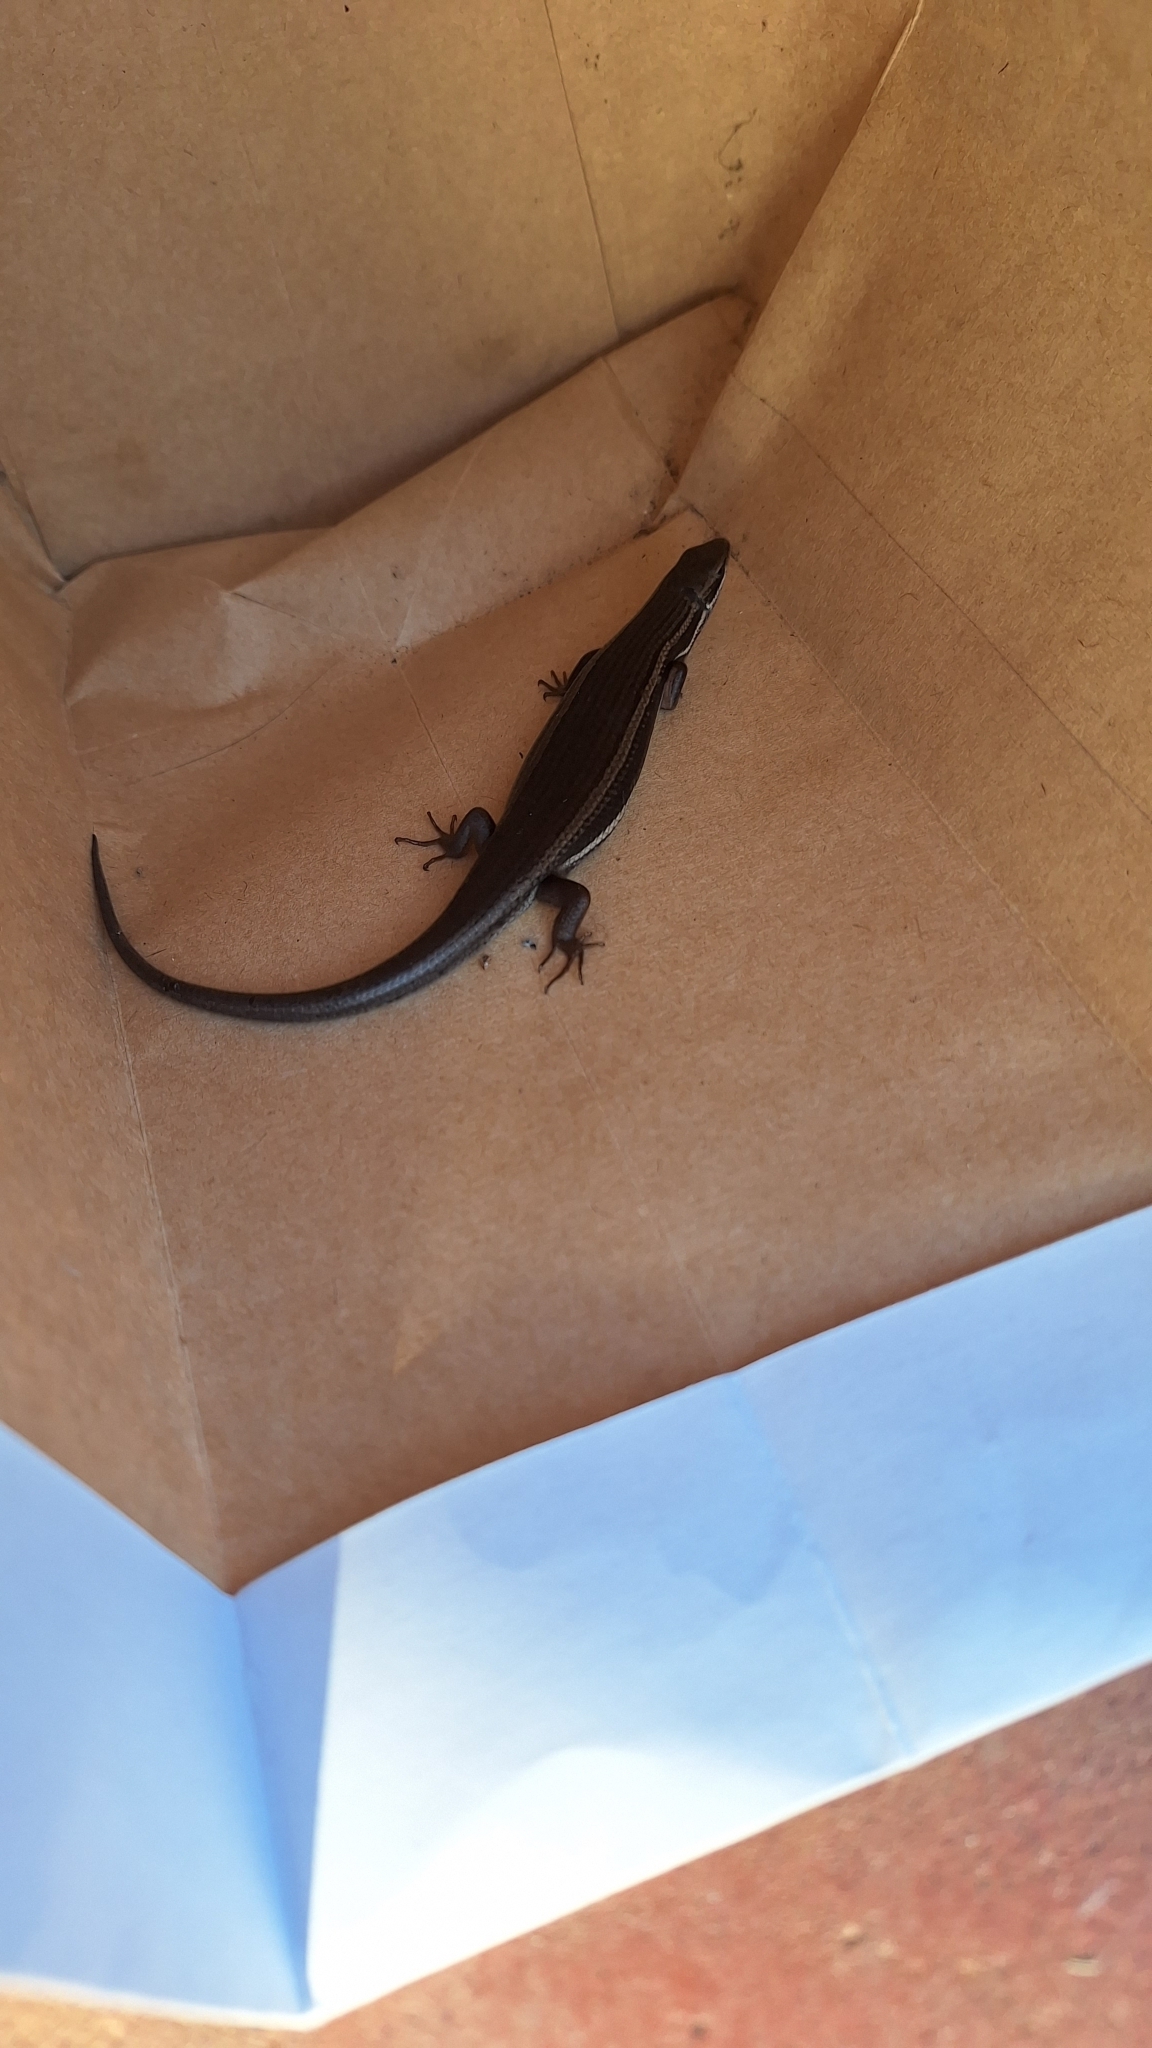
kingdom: Animalia
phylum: Chordata
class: Squamata
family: Scincidae
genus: Trachylepis
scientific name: Trachylepis homalocephala
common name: Red-sided skink
